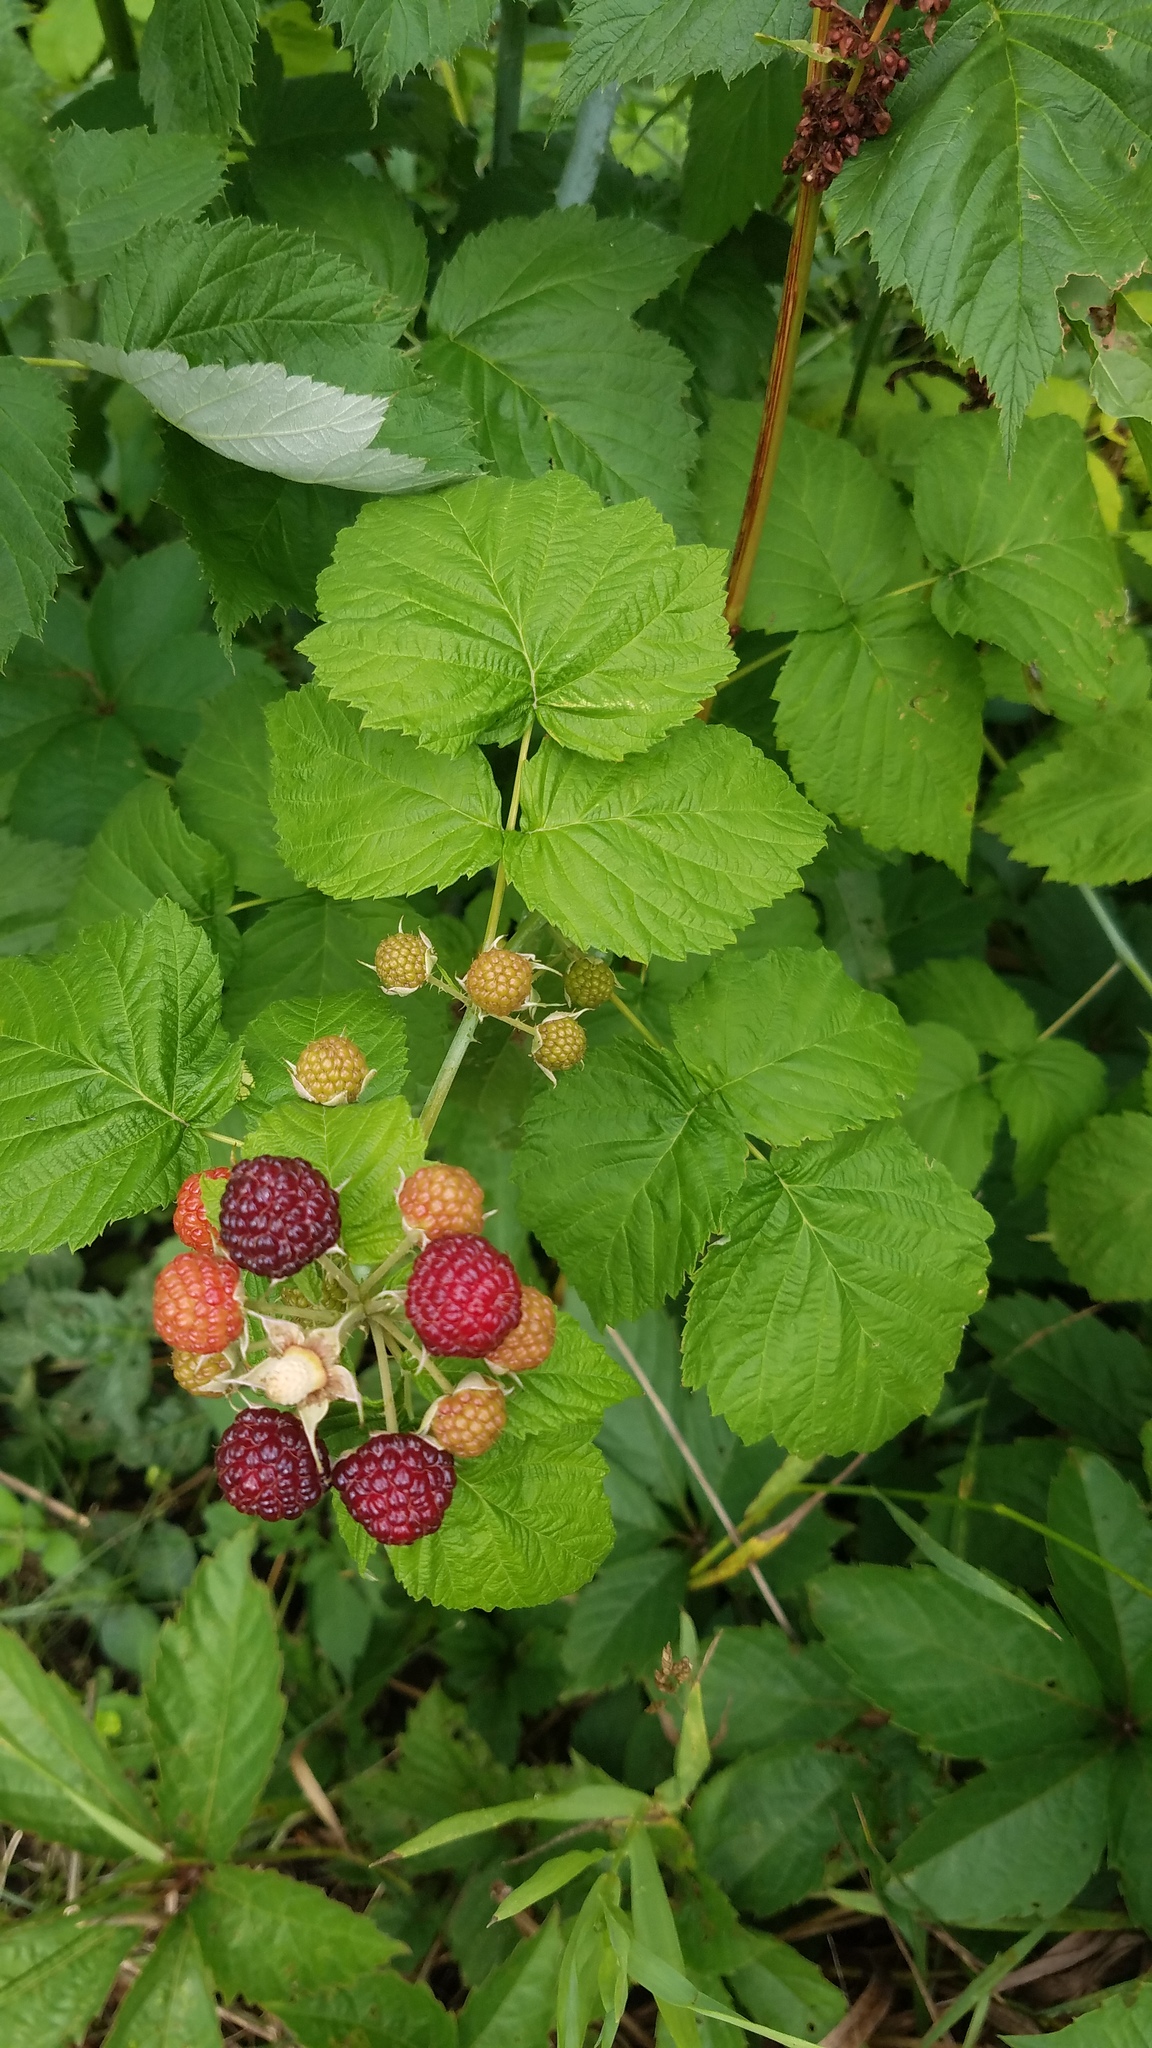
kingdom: Plantae
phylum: Tracheophyta
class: Magnoliopsida
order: Rosales
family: Rosaceae
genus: Rubus
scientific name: Rubus occidentalis
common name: Black raspberry
